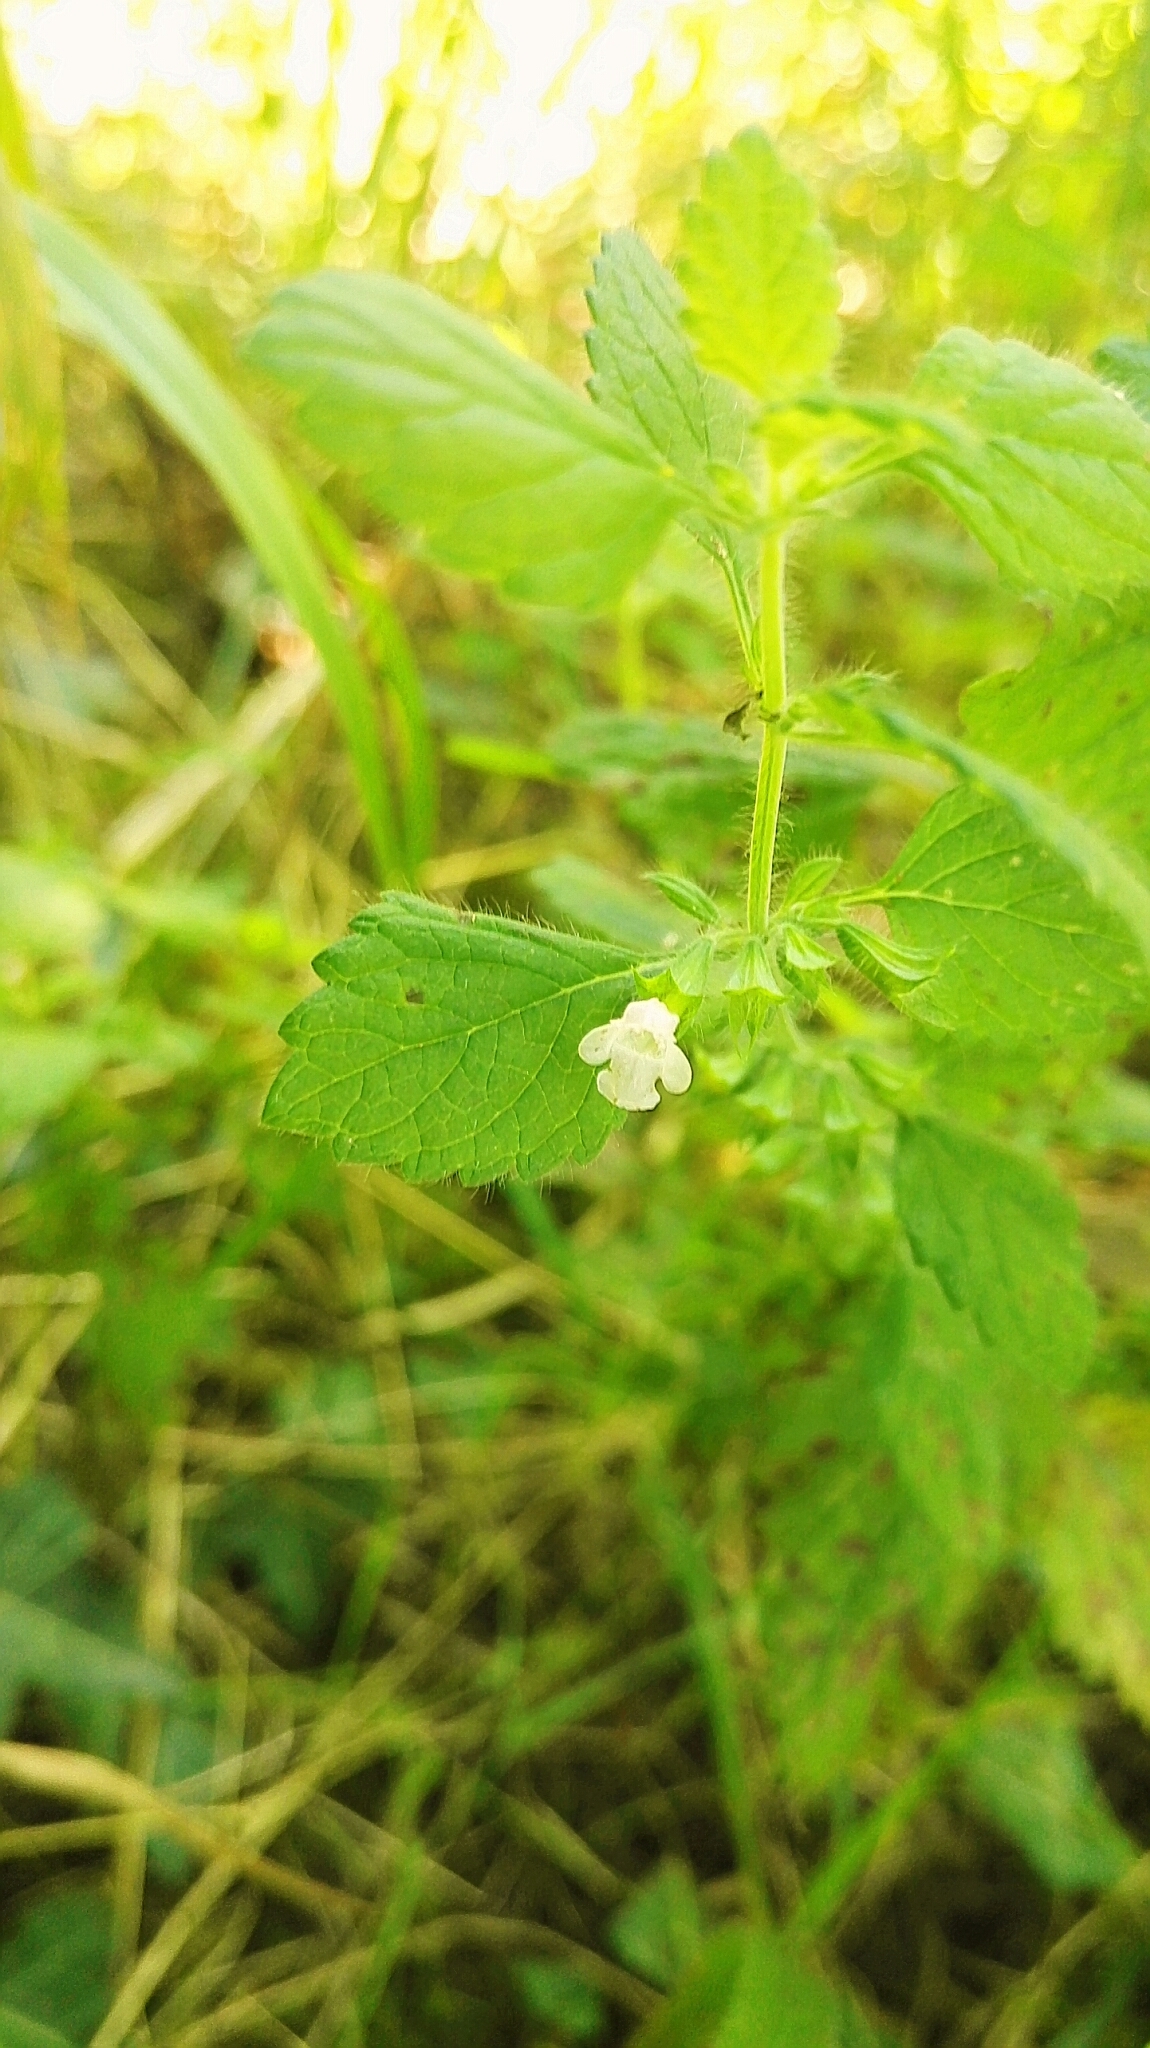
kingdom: Plantae
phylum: Tracheophyta
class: Magnoliopsida
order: Lamiales
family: Lamiaceae
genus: Melissa
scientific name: Melissa officinalis
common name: Balm
